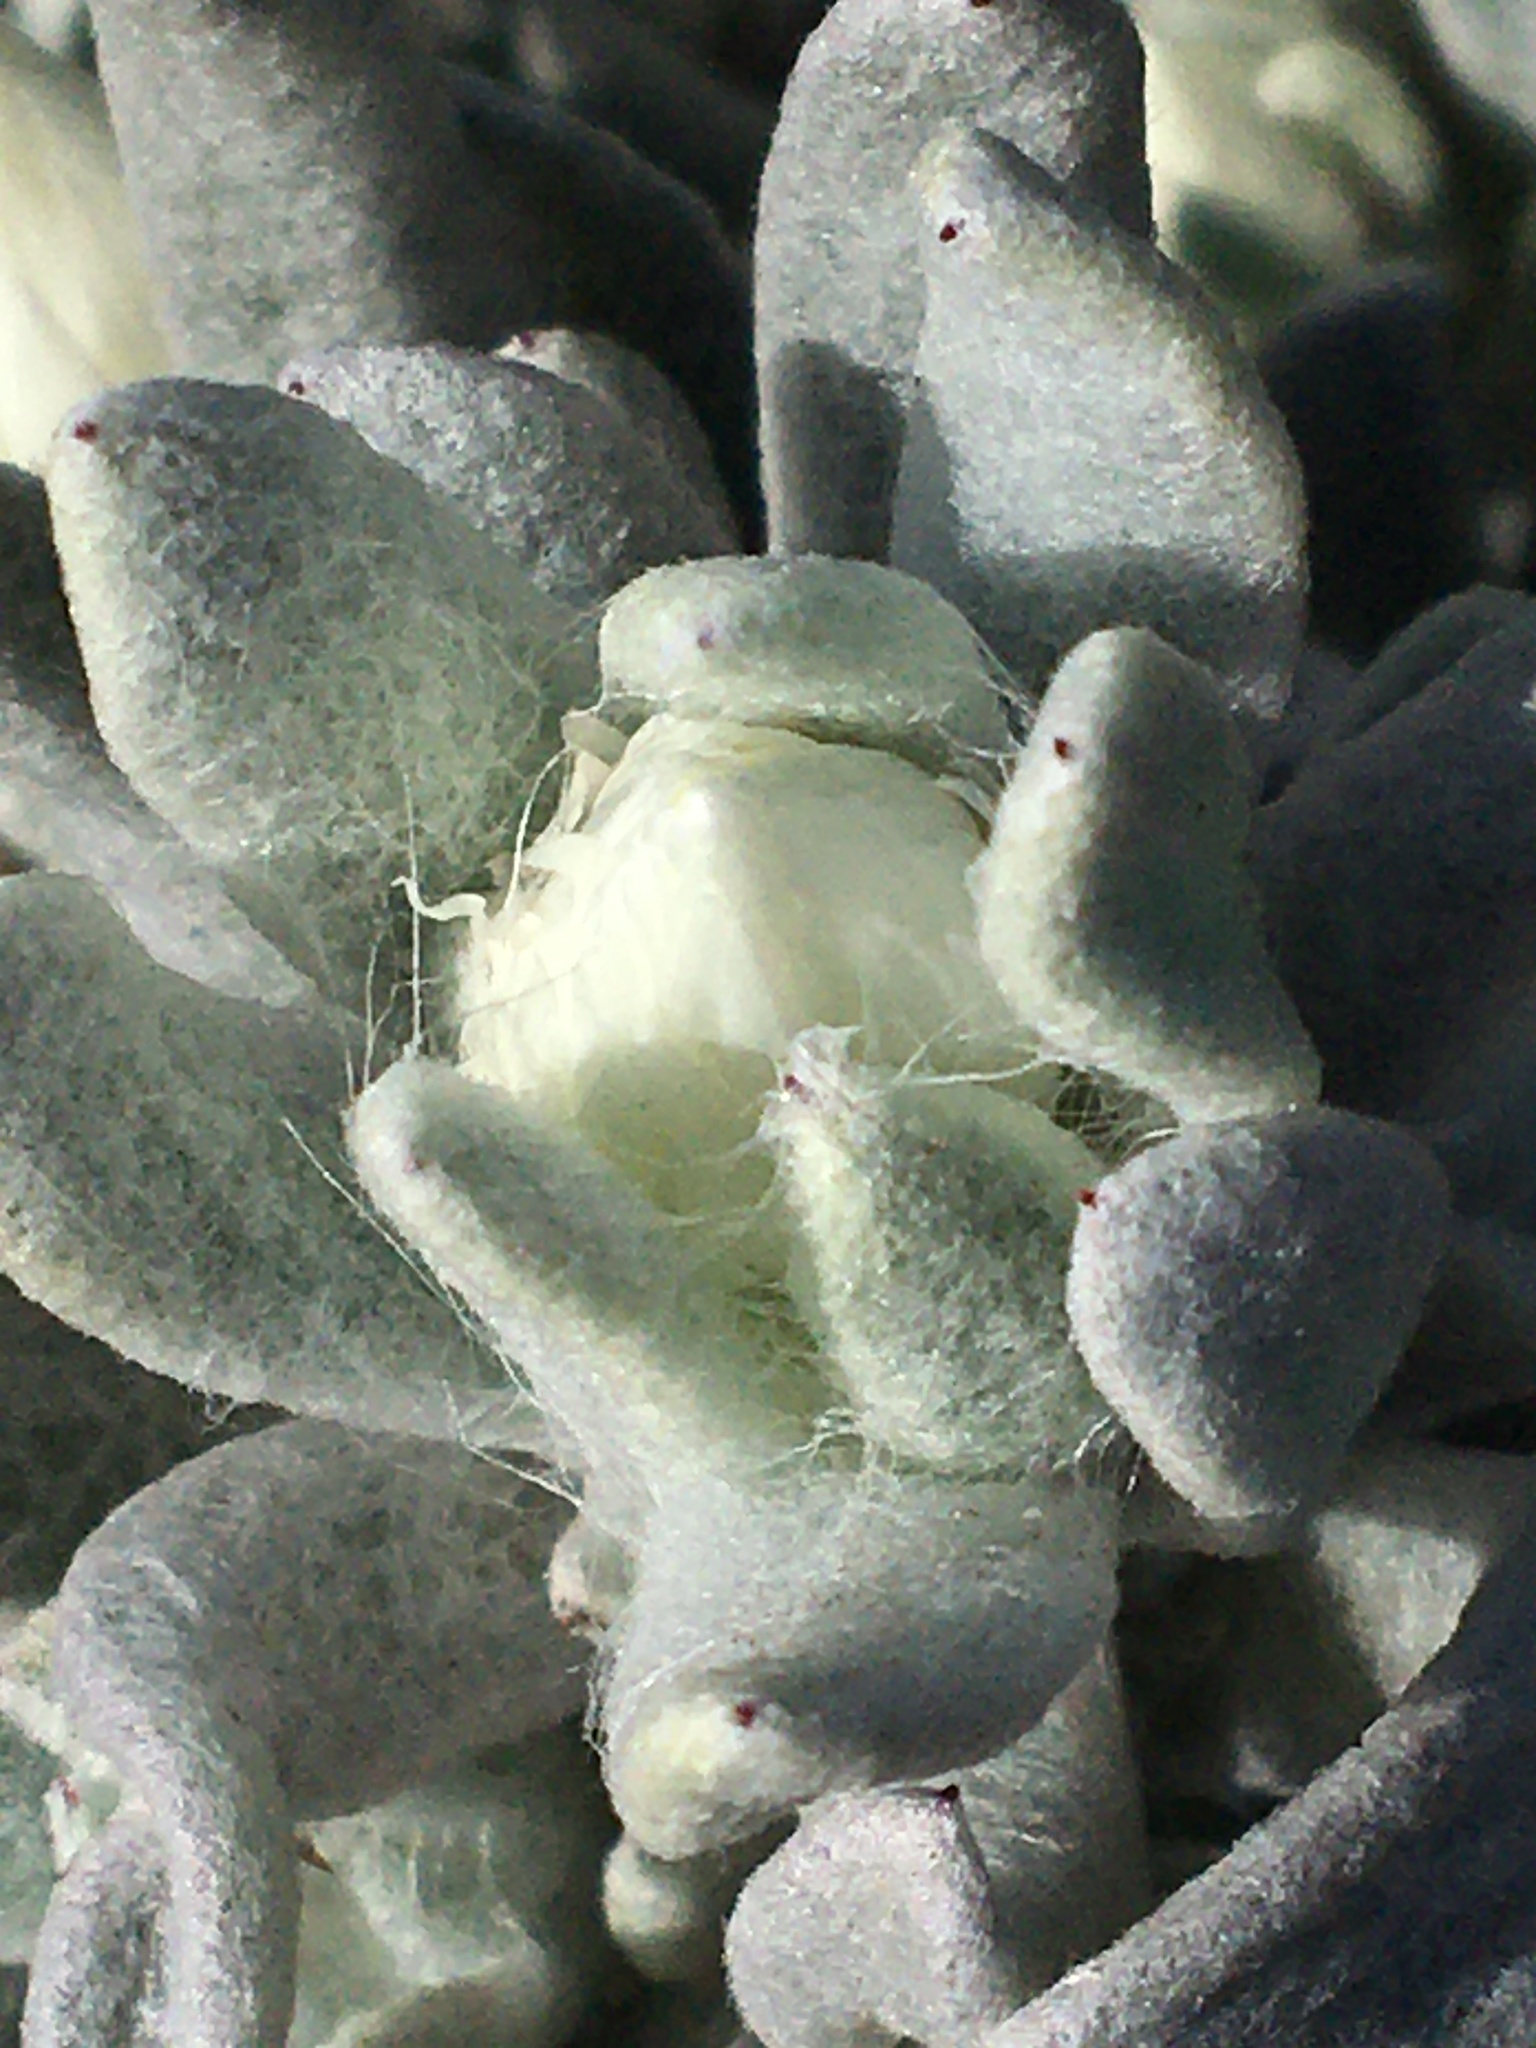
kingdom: Plantae
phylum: Tracheophyta
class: Magnoliopsida
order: Asterales
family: Asteraceae
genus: Syncarpha
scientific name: Syncarpha vestita
